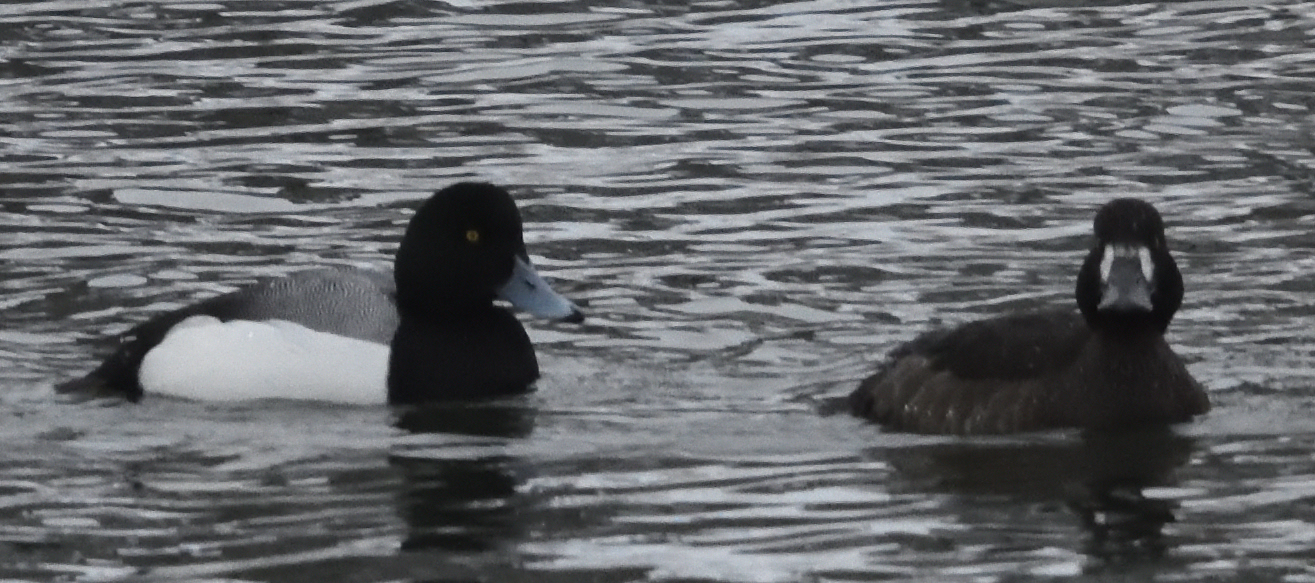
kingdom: Animalia
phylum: Chordata
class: Aves
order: Anseriformes
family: Anatidae
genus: Aythya
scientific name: Aythya marila
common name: Greater scaup
